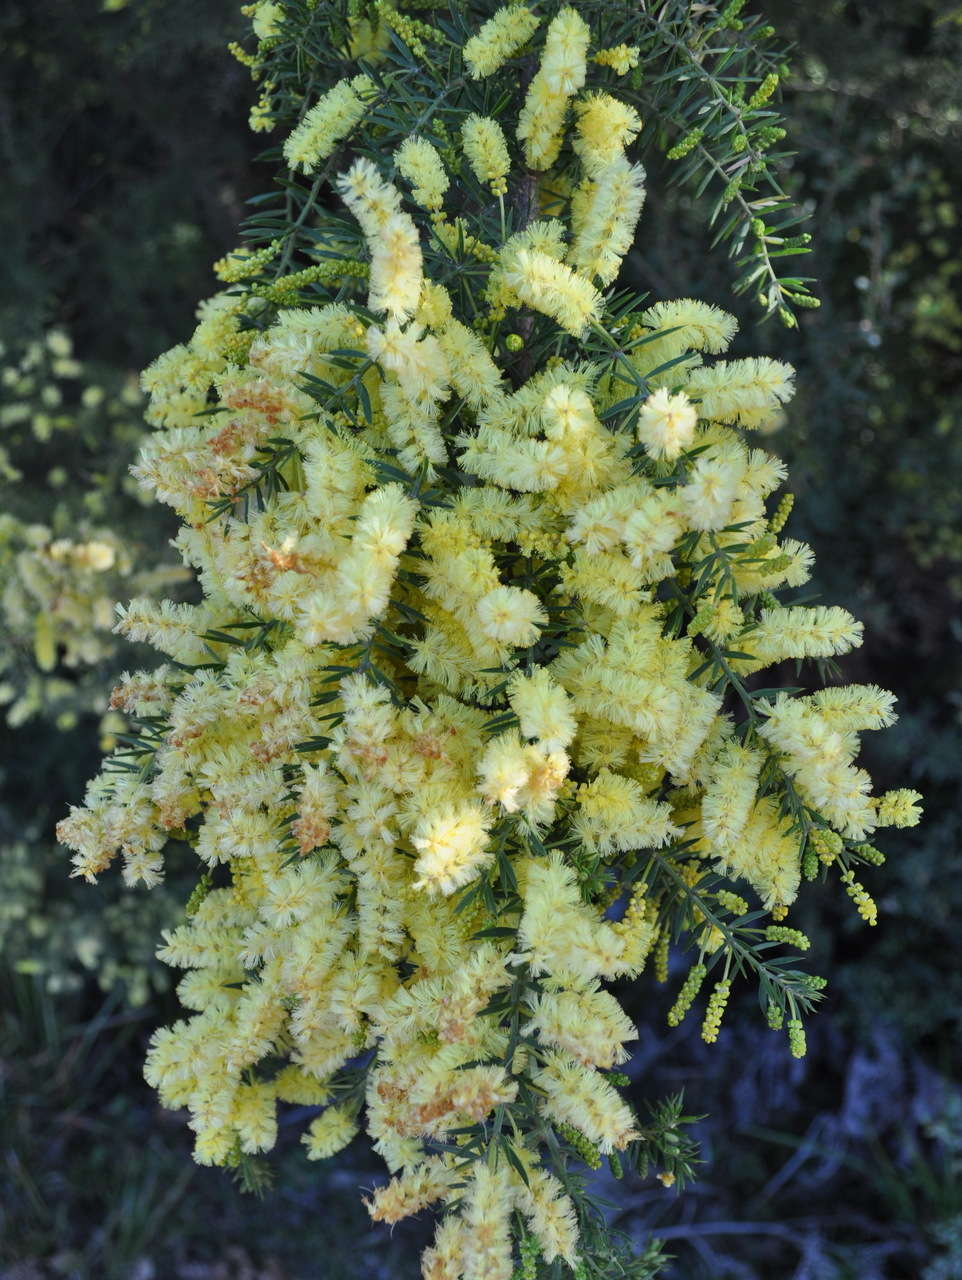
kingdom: Plantae
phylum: Tracheophyta
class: Magnoliopsida
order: Fabales
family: Fabaceae
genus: Acacia
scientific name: Acacia verticillata
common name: Prickly moses
